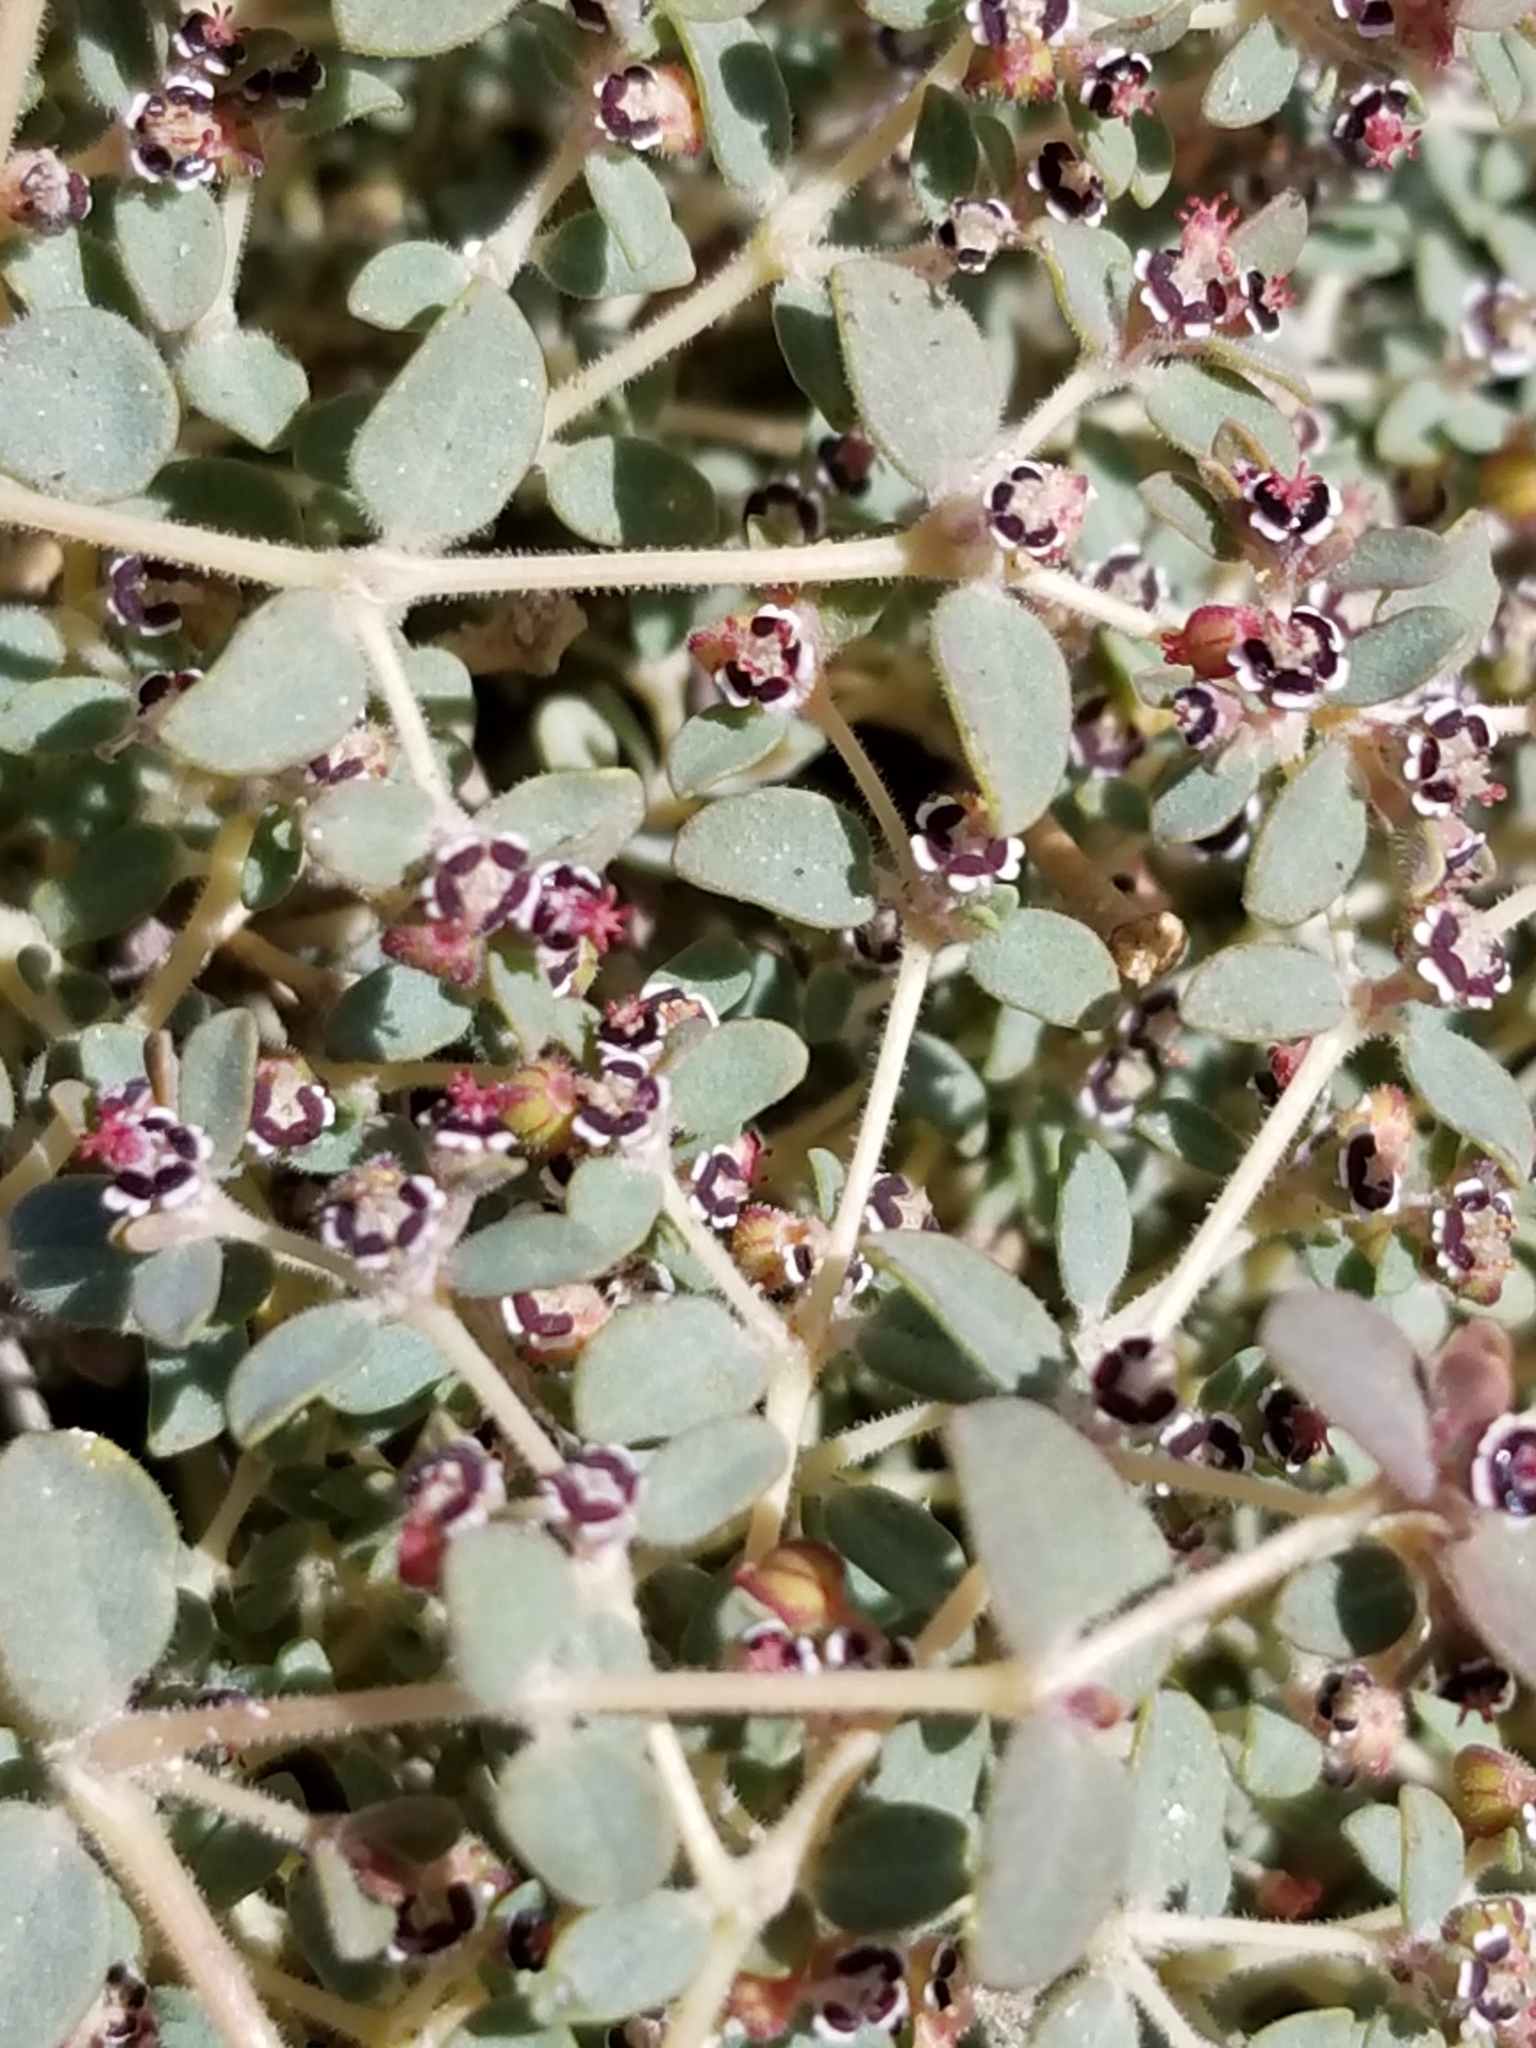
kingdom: Plantae
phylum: Tracheophyta
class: Magnoliopsida
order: Malpighiales
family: Euphorbiaceae
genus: Euphorbia
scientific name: Euphorbia polycarpa
